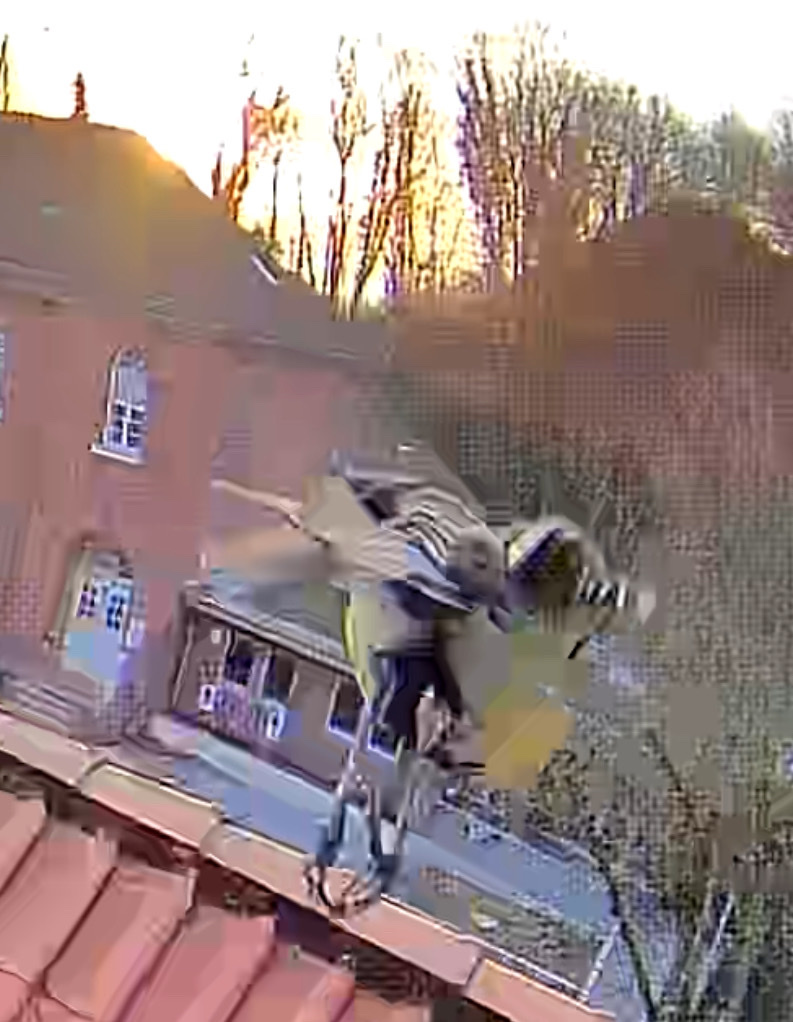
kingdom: Animalia
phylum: Chordata
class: Aves
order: Passeriformes
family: Paridae
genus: Cyanistes
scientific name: Cyanistes caeruleus
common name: Eurasian blue tit
